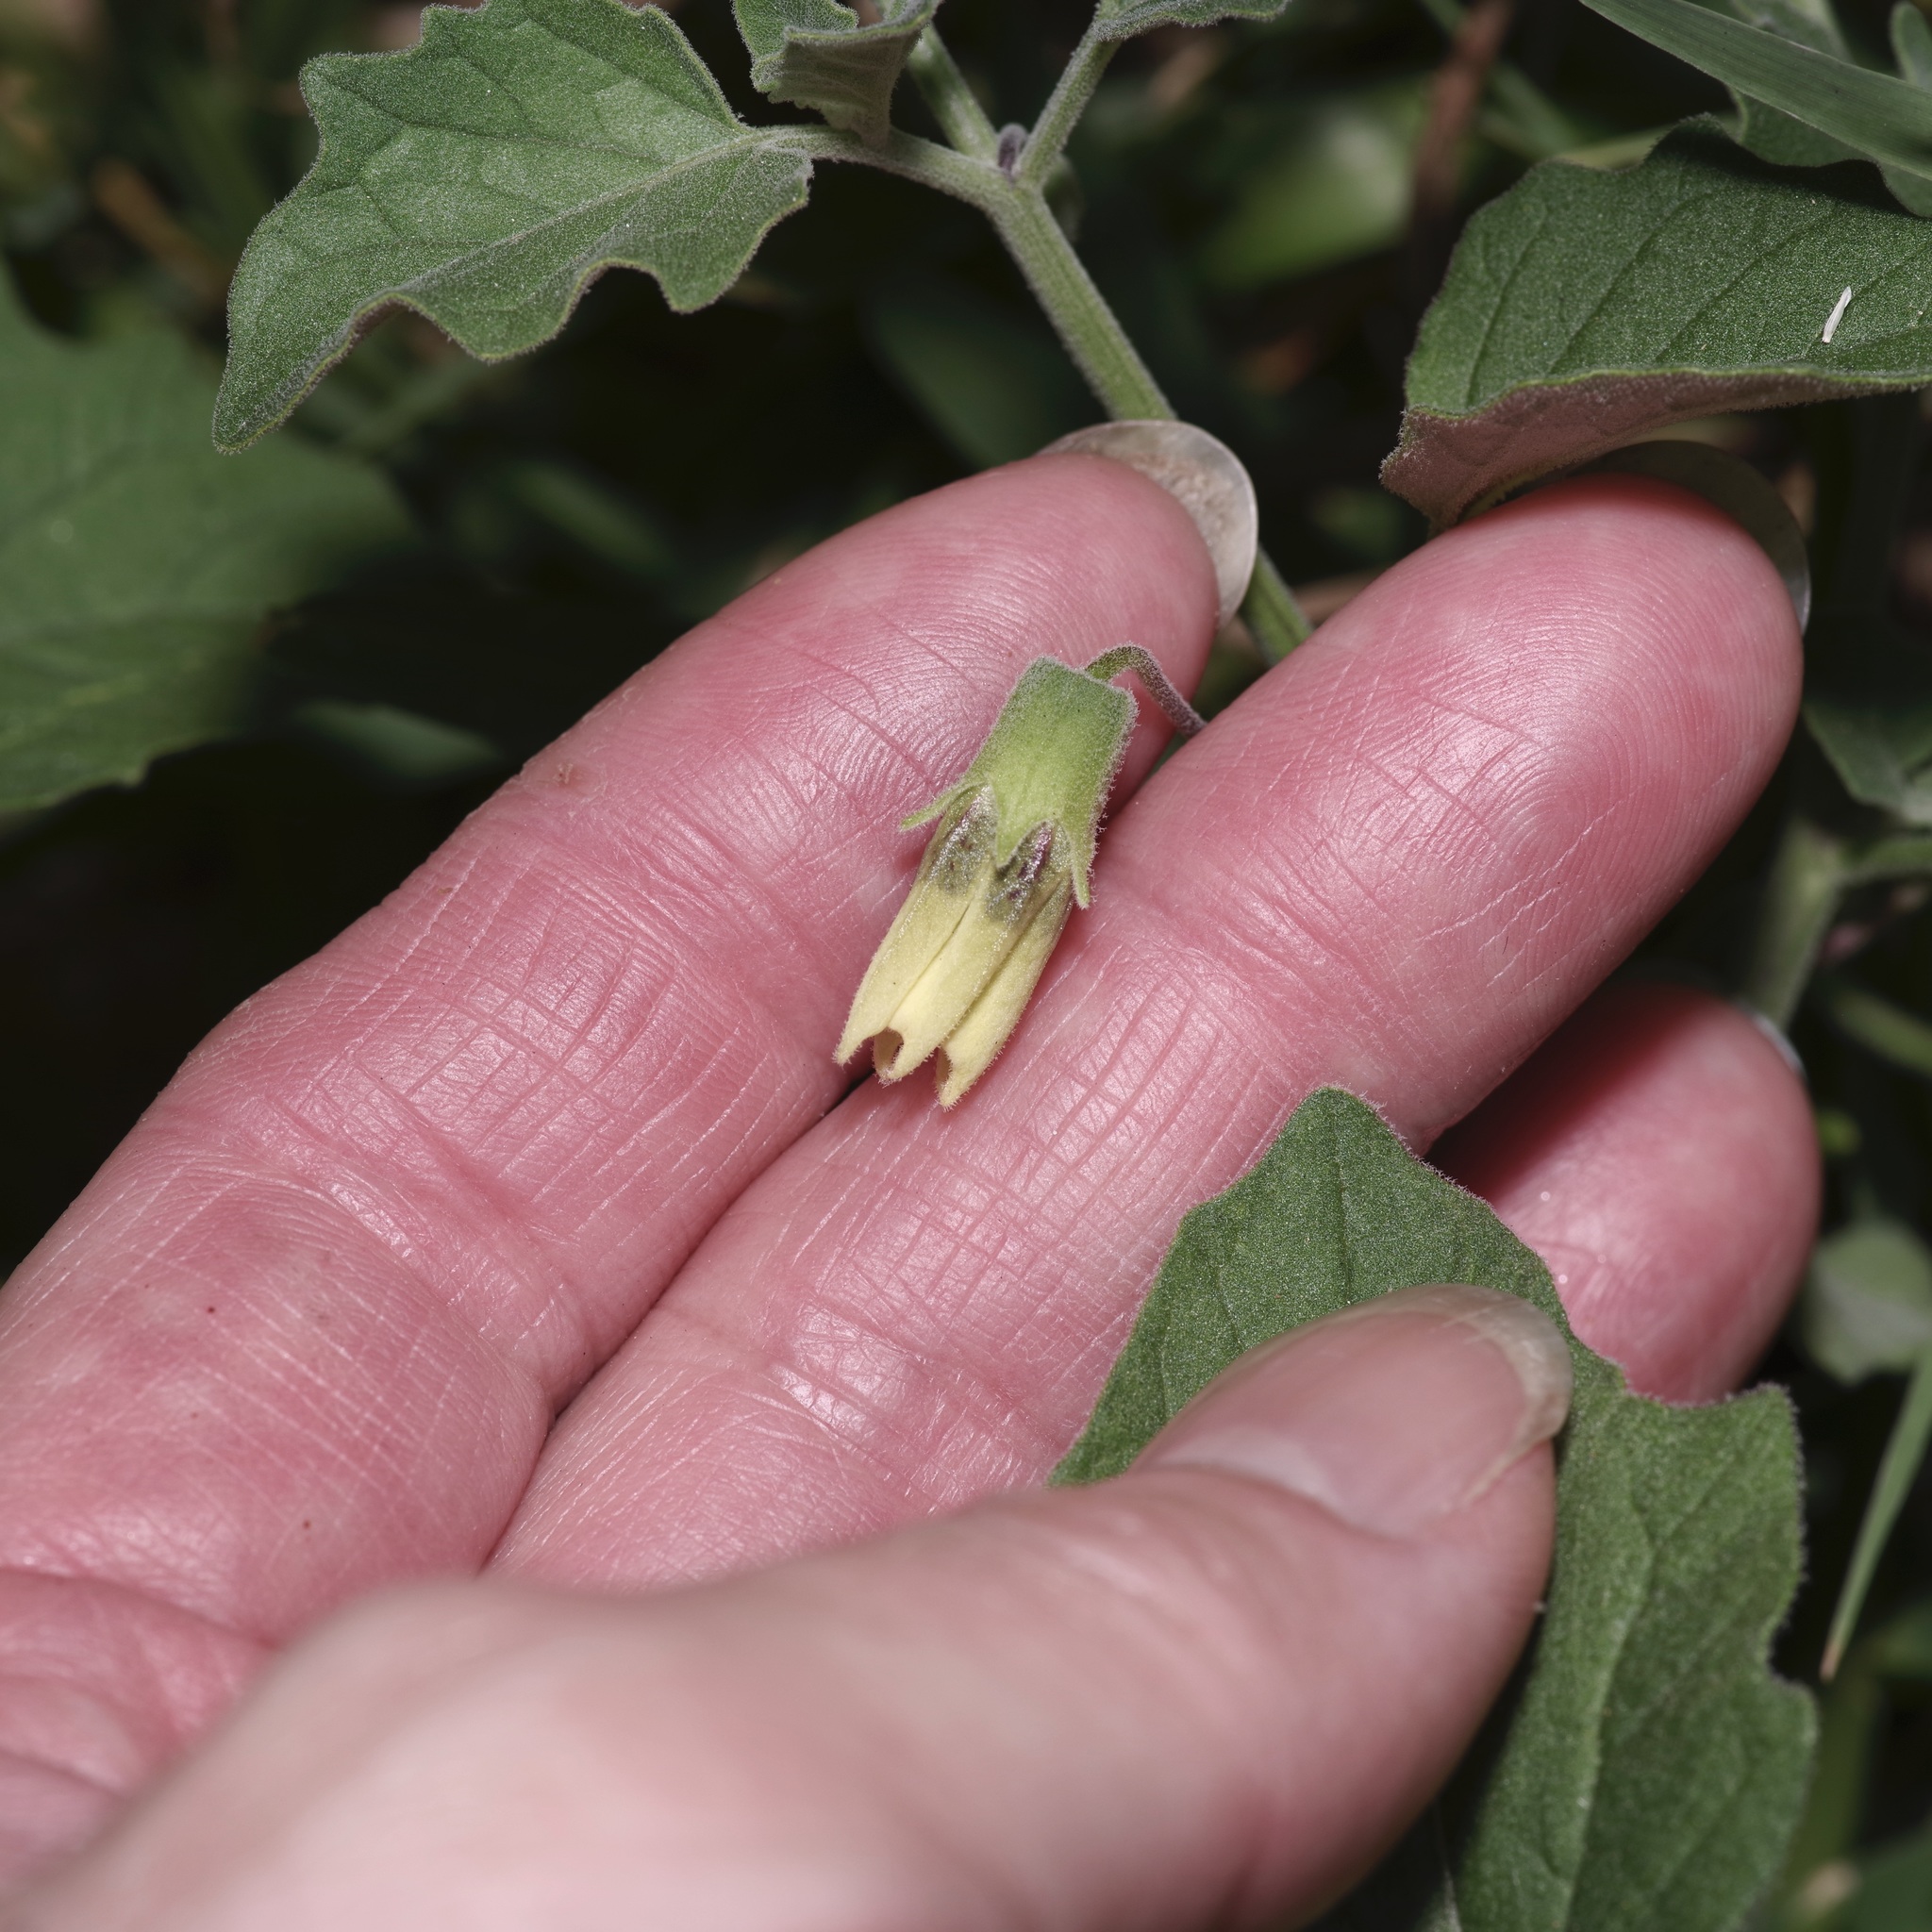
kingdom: Plantae
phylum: Tracheophyta
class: Magnoliopsida
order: Solanales
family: Solanaceae
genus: Physalis
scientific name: Physalis cinerascens
